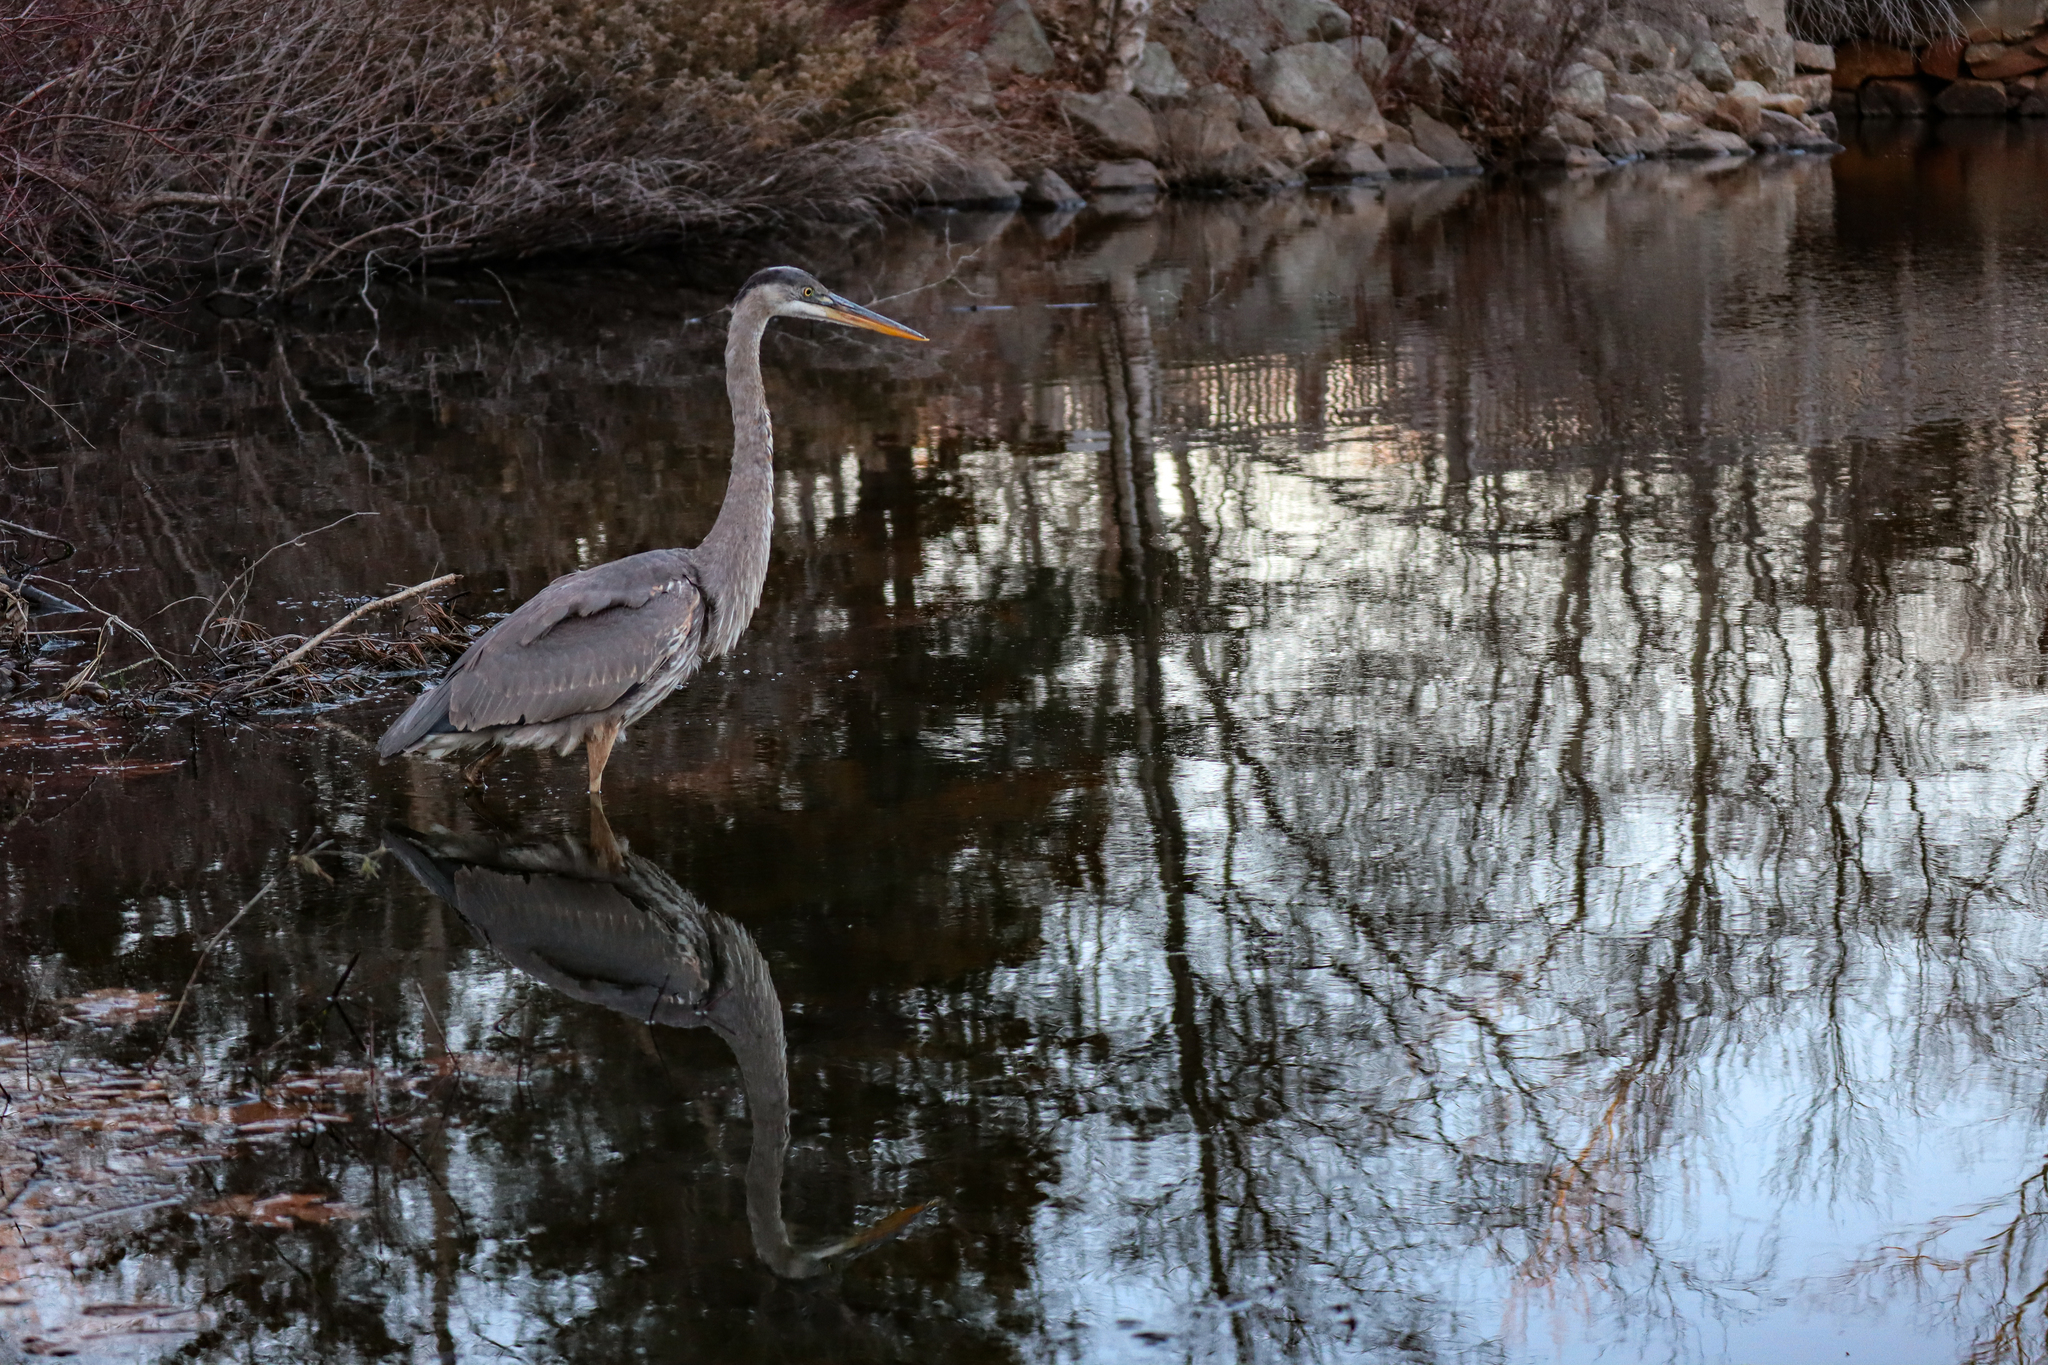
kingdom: Animalia
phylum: Chordata
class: Aves
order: Pelecaniformes
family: Ardeidae
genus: Ardea
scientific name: Ardea herodias
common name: Great blue heron
